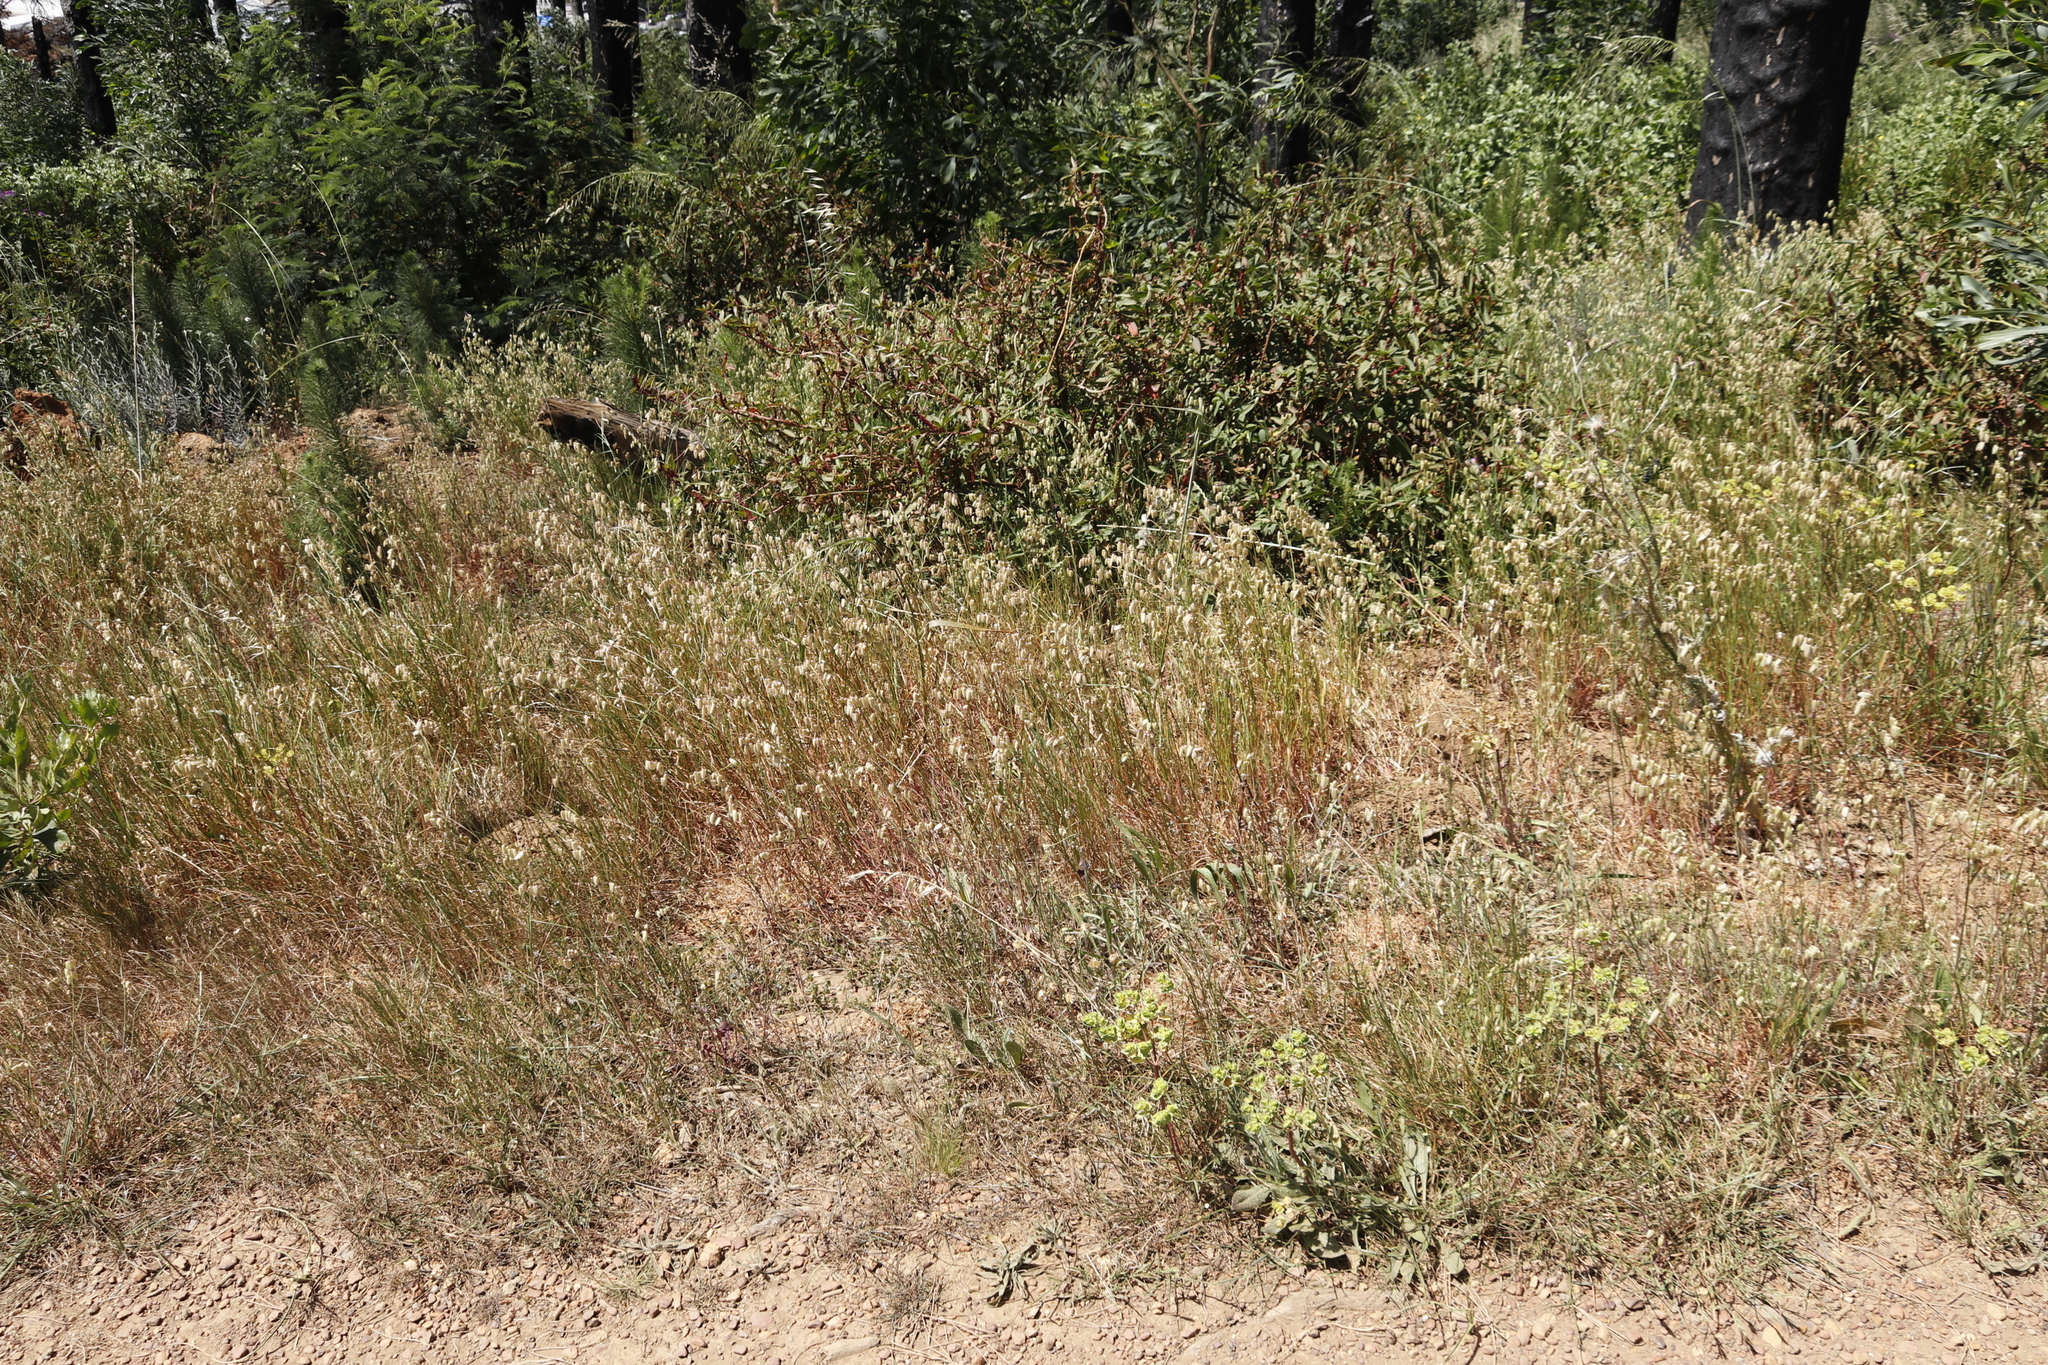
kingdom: Plantae
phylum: Tracheophyta
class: Liliopsida
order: Poales
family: Poaceae
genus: Briza
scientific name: Briza maxima
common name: Big quakinggrass
